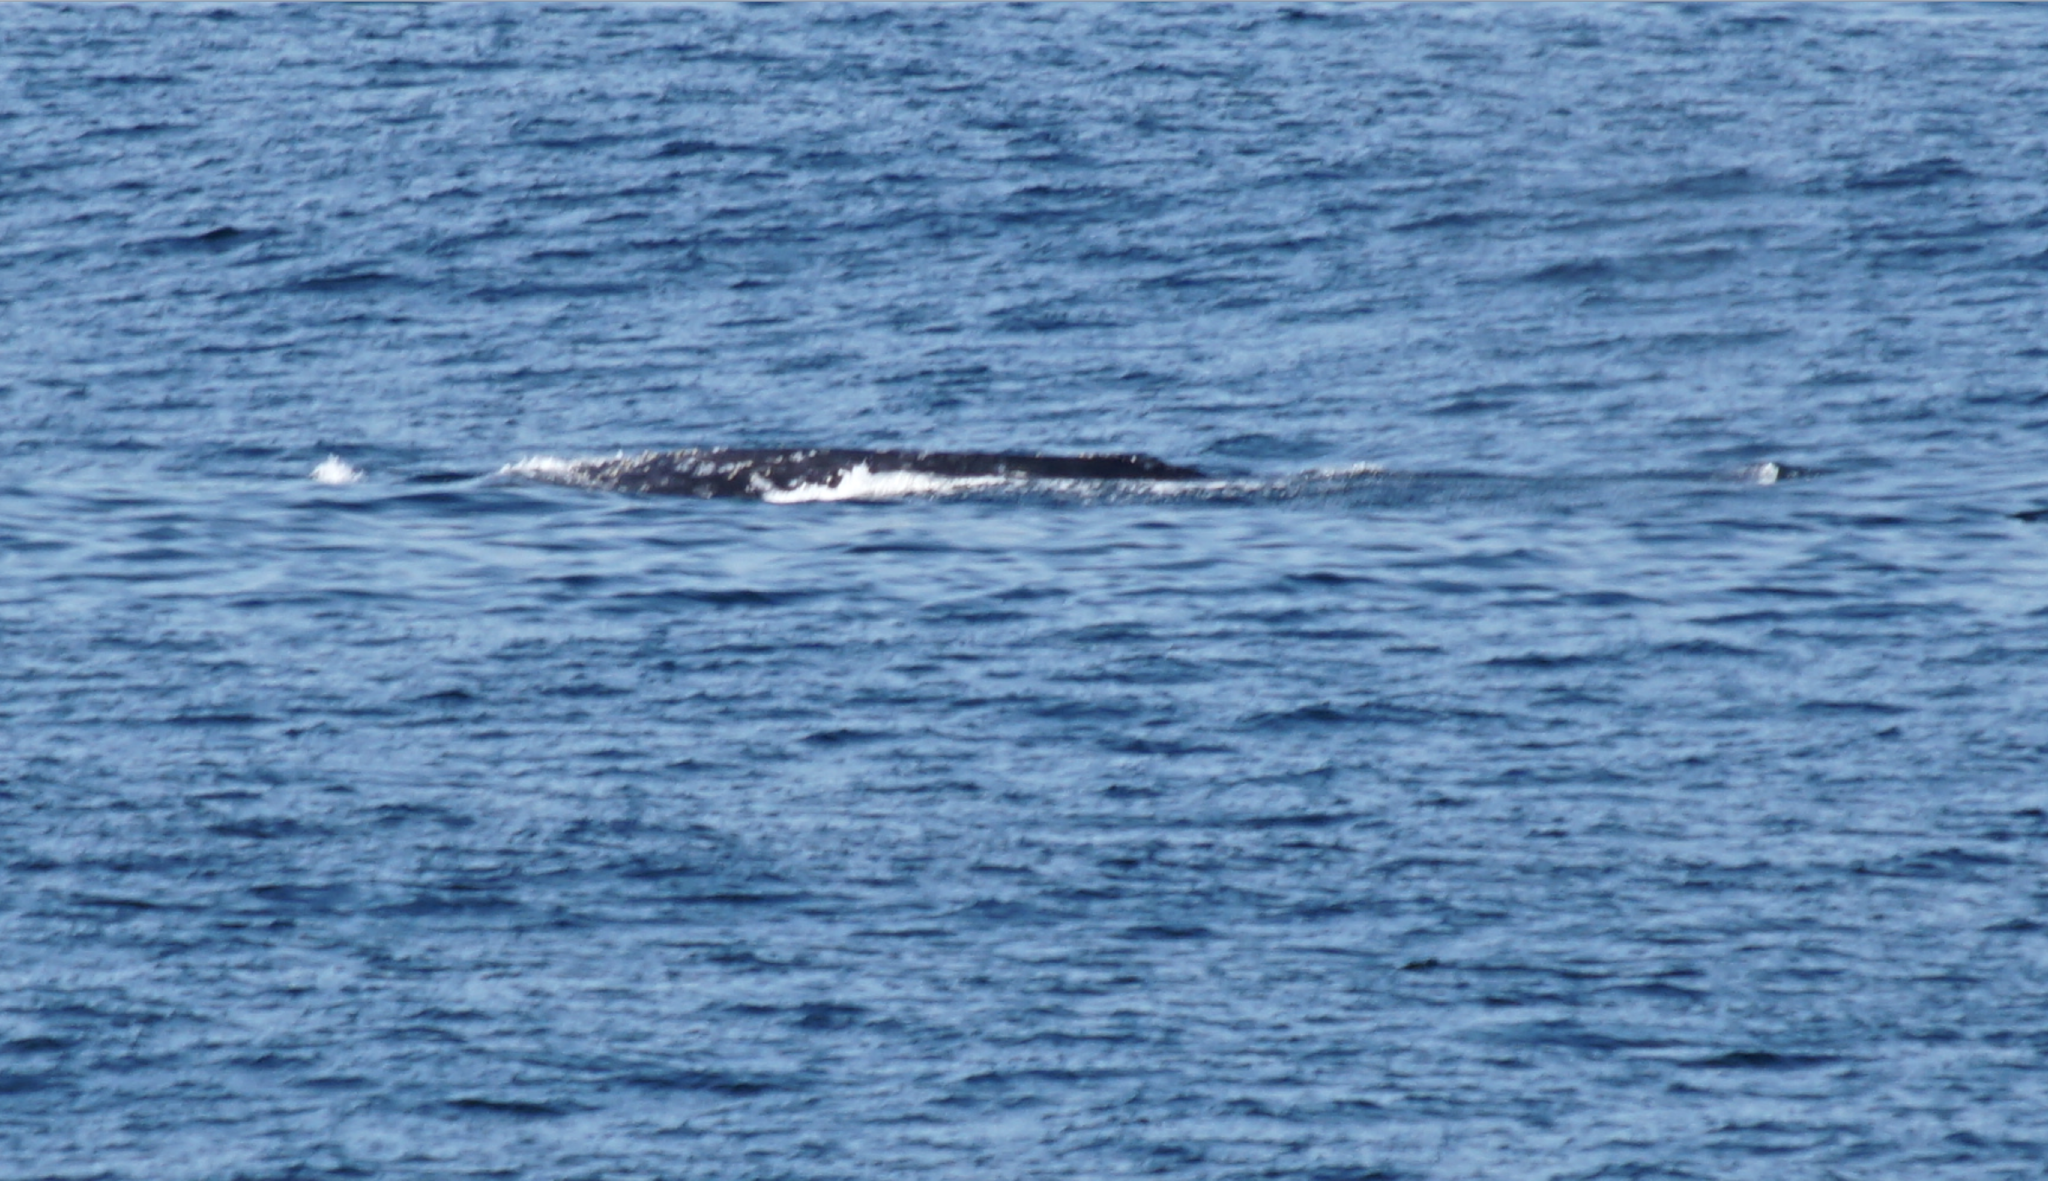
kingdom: Animalia
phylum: Chordata
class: Mammalia
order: Cetacea
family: Eschrichtiidae
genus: Eschrichtius
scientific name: Eschrichtius robustus
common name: Gray whale
